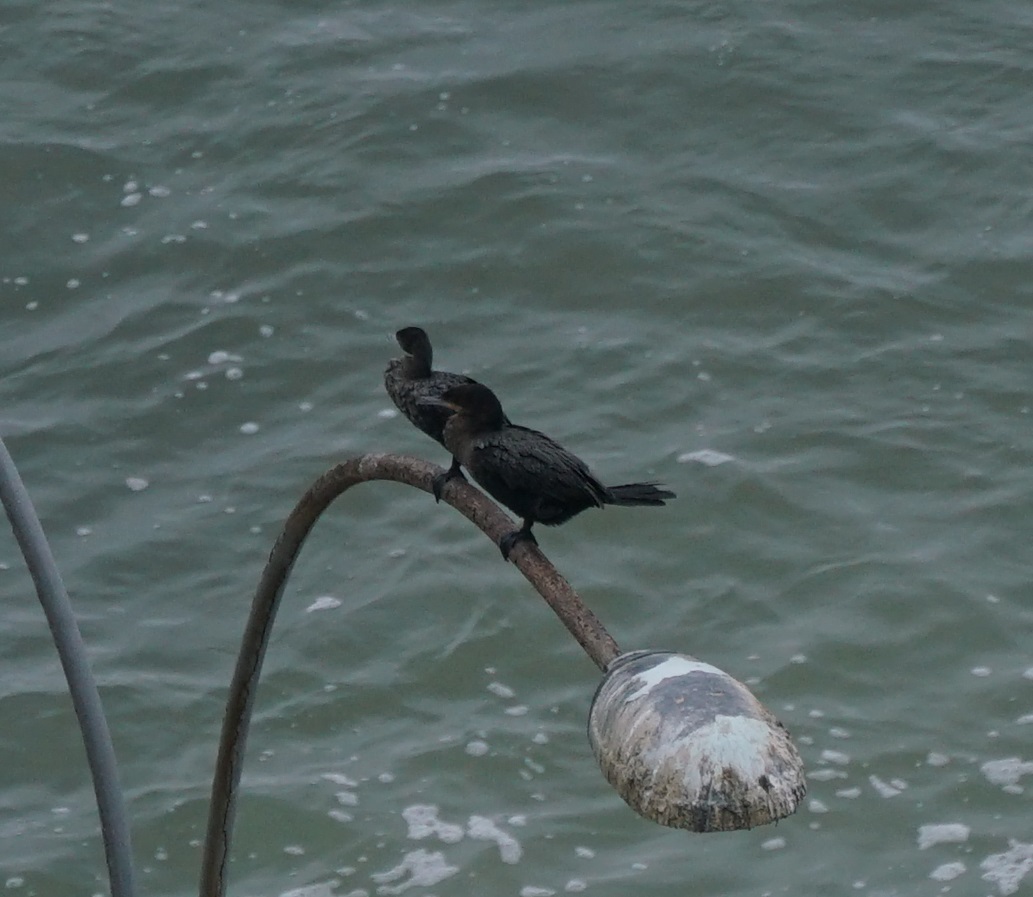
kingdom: Animalia
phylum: Chordata
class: Aves
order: Suliformes
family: Phalacrocoracidae
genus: Phalacrocorax
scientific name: Phalacrocorax brasilianus
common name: Neotropic cormorant
